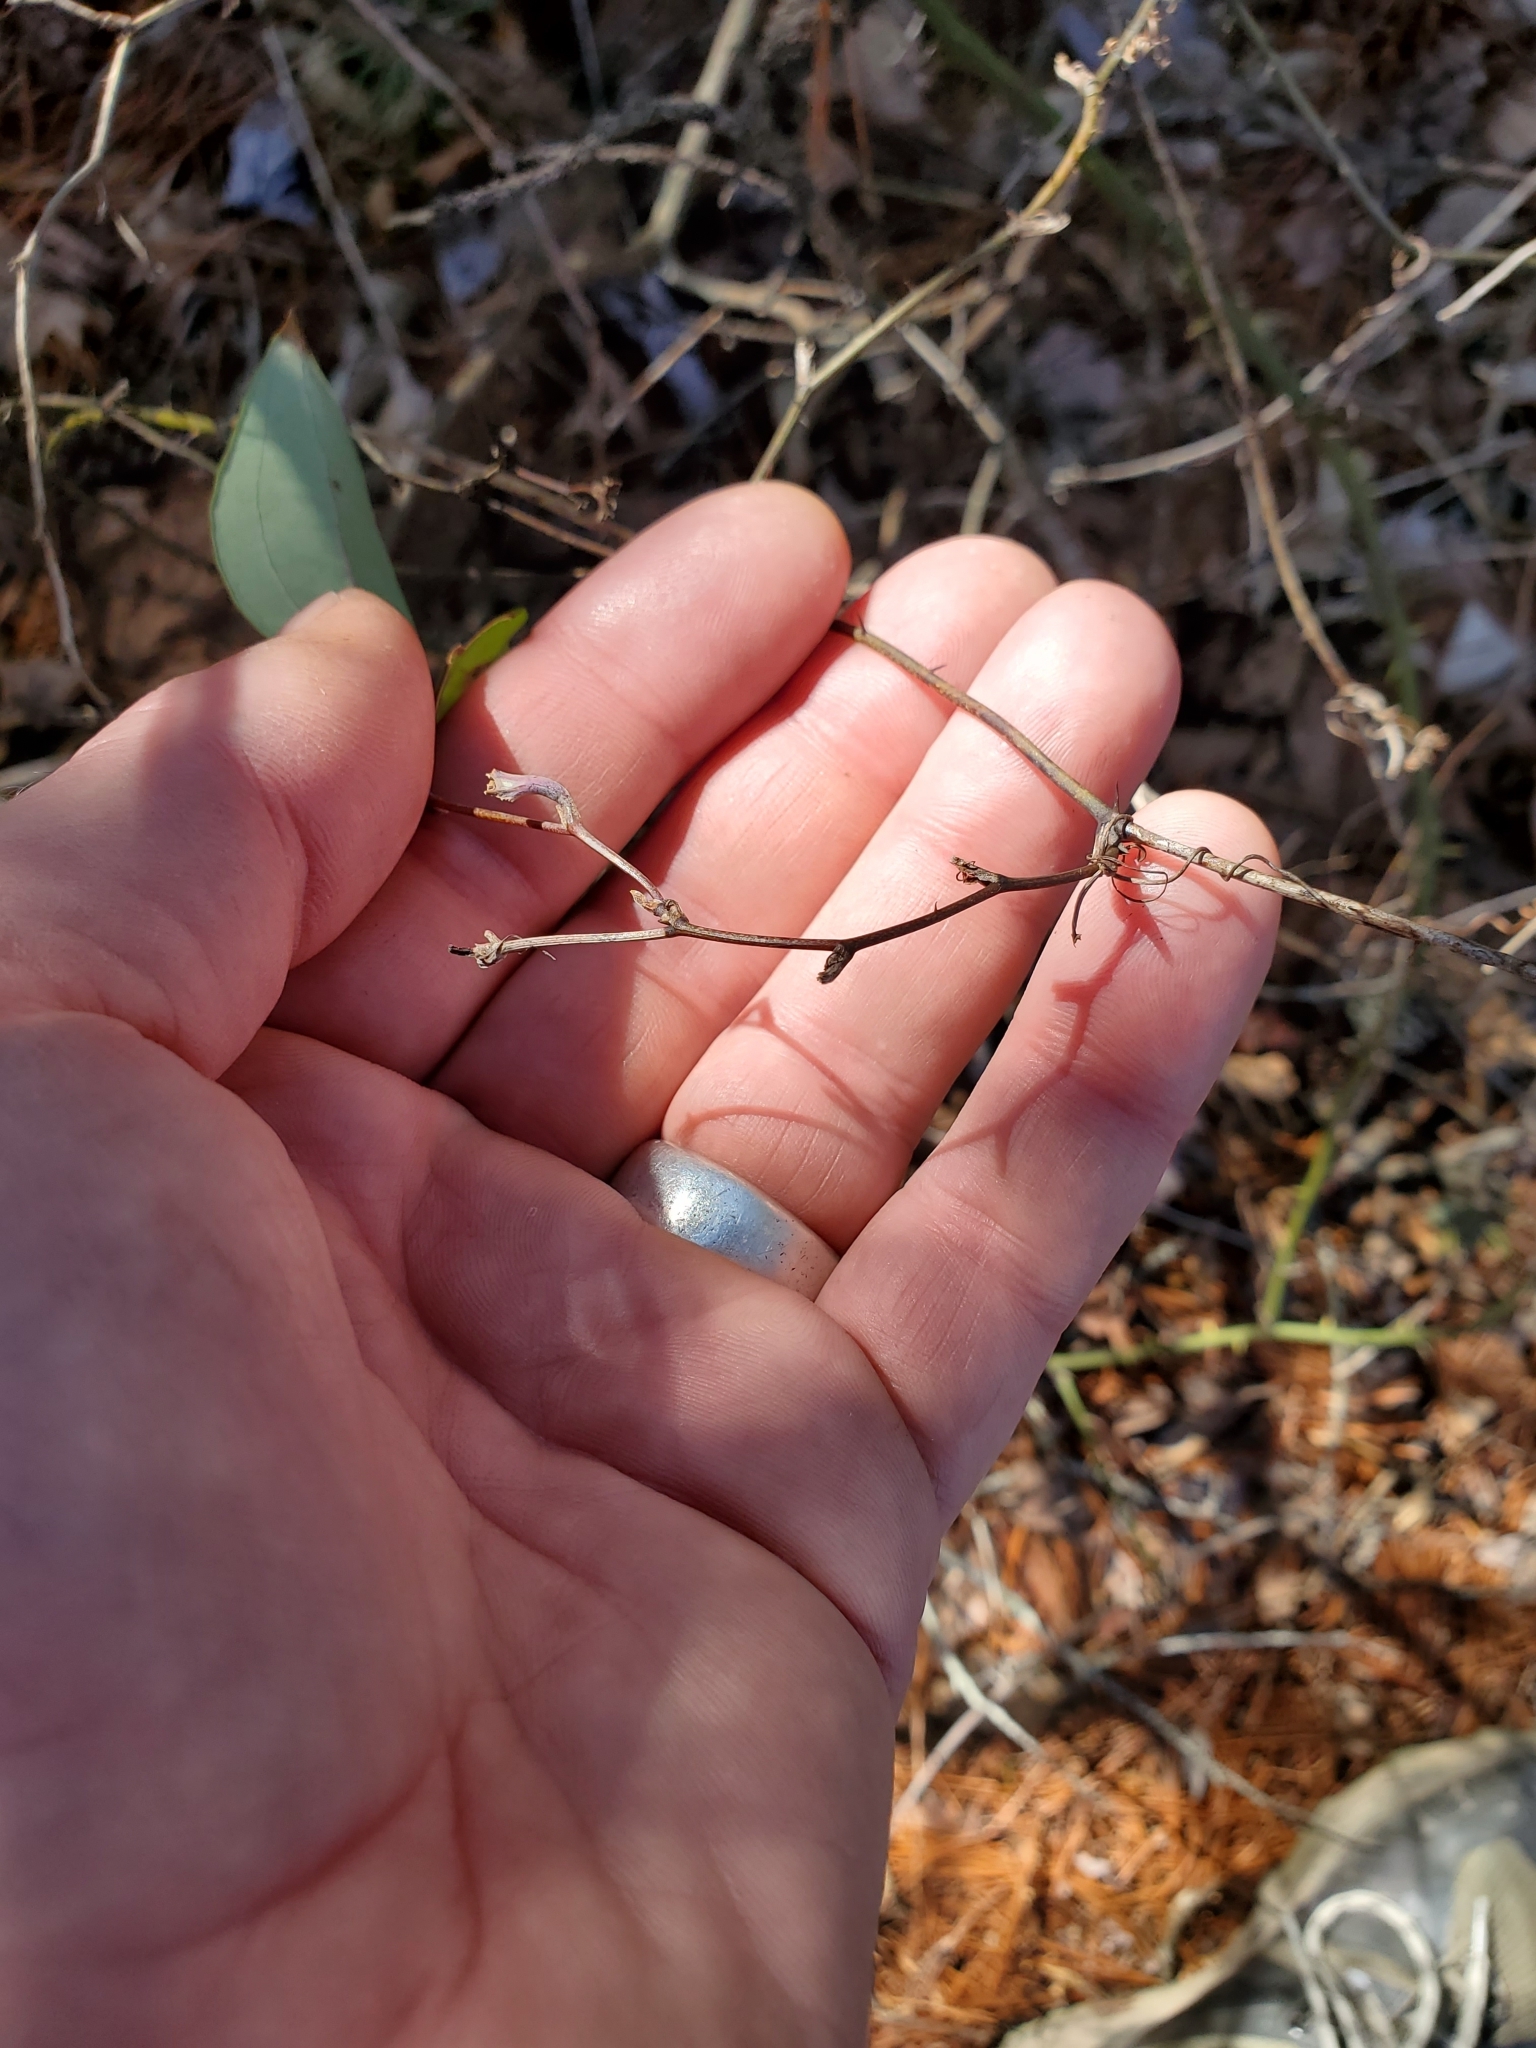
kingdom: Plantae
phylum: Tracheophyta
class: Liliopsida
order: Liliales
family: Smilacaceae
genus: Smilax
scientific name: Smilax glauca
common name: Cat greenbrier
